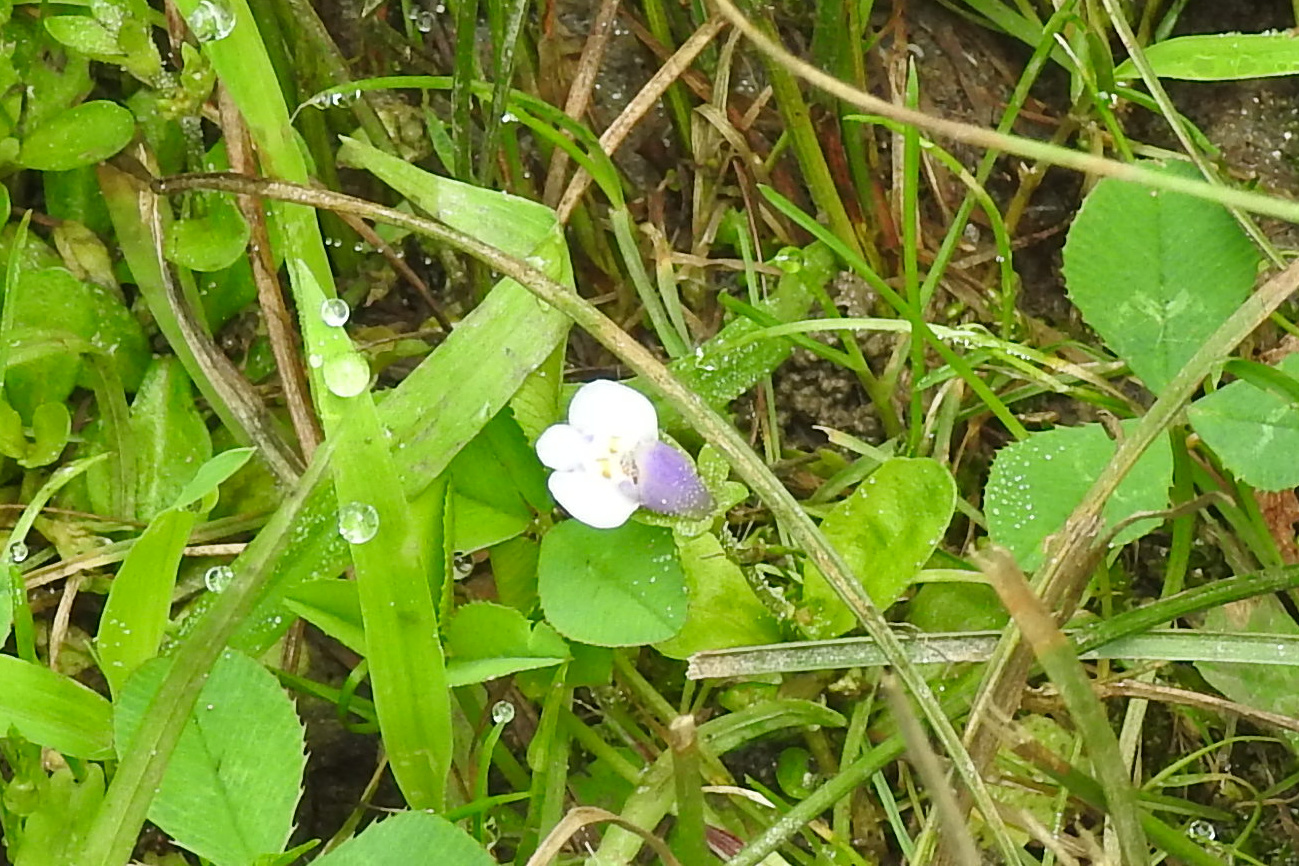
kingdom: Plantae
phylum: Tracheophyta
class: Magnoliopsida
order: Lamiales
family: Mazaceae
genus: Mazus
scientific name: Mazus pumilus
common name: Japanese mazus
